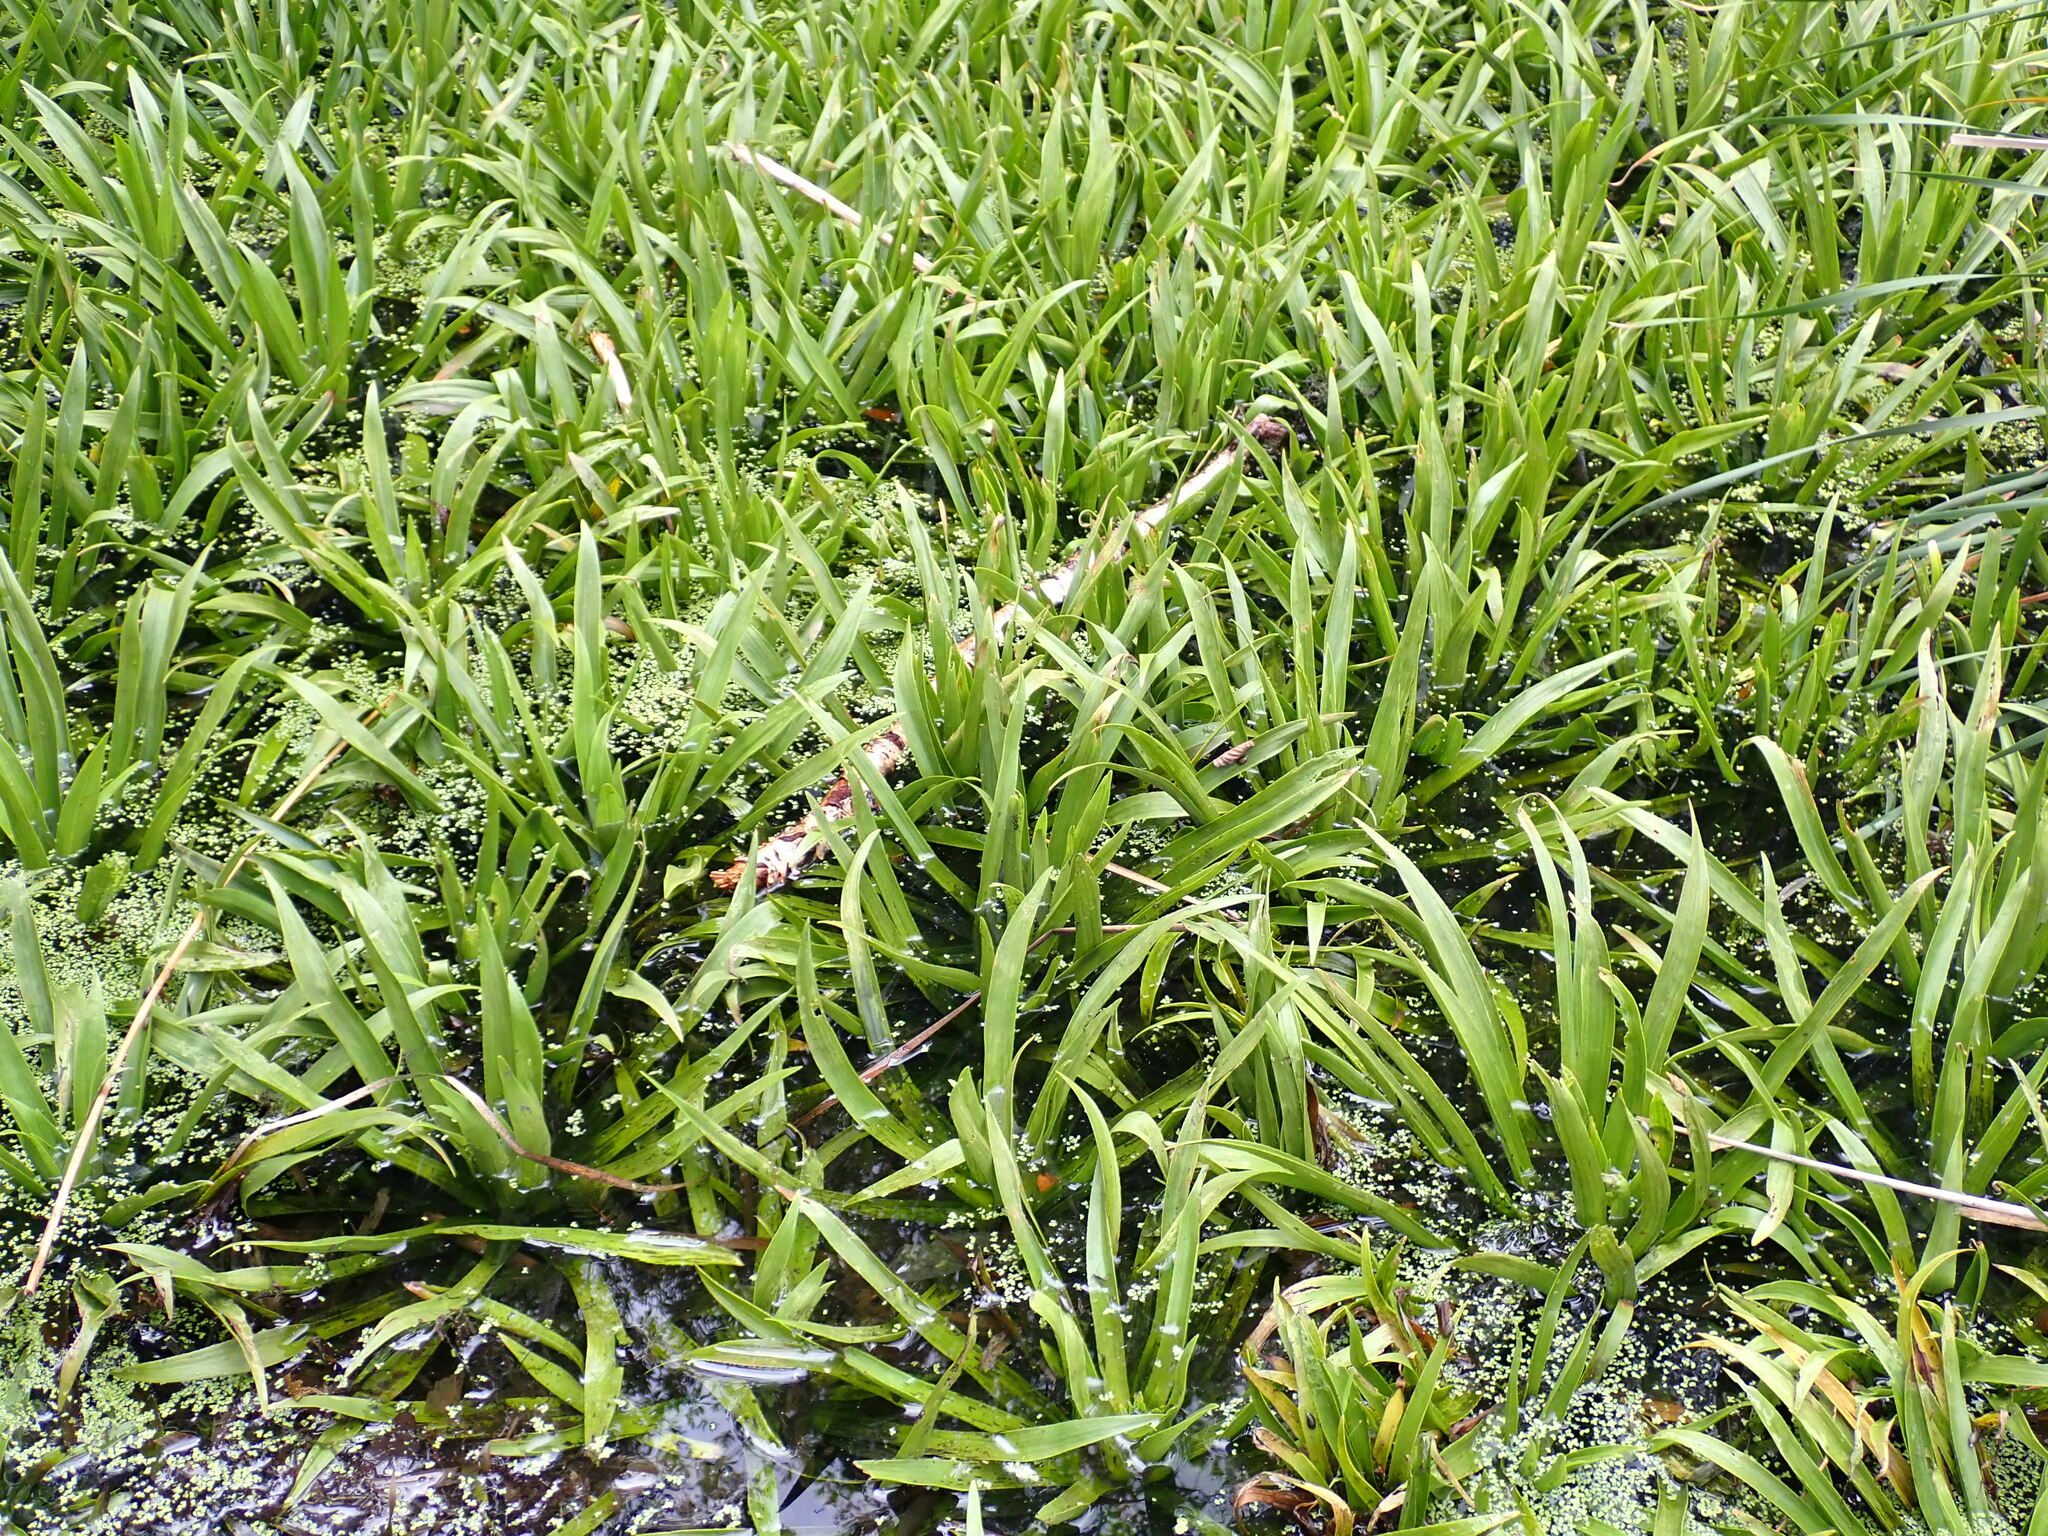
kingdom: Plantae
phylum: Tracheophyta
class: Liliopsida
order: Alismatales
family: Hydrocharitaceae
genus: Stratiotes
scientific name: Stratiotes aloides
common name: Water-soldier
